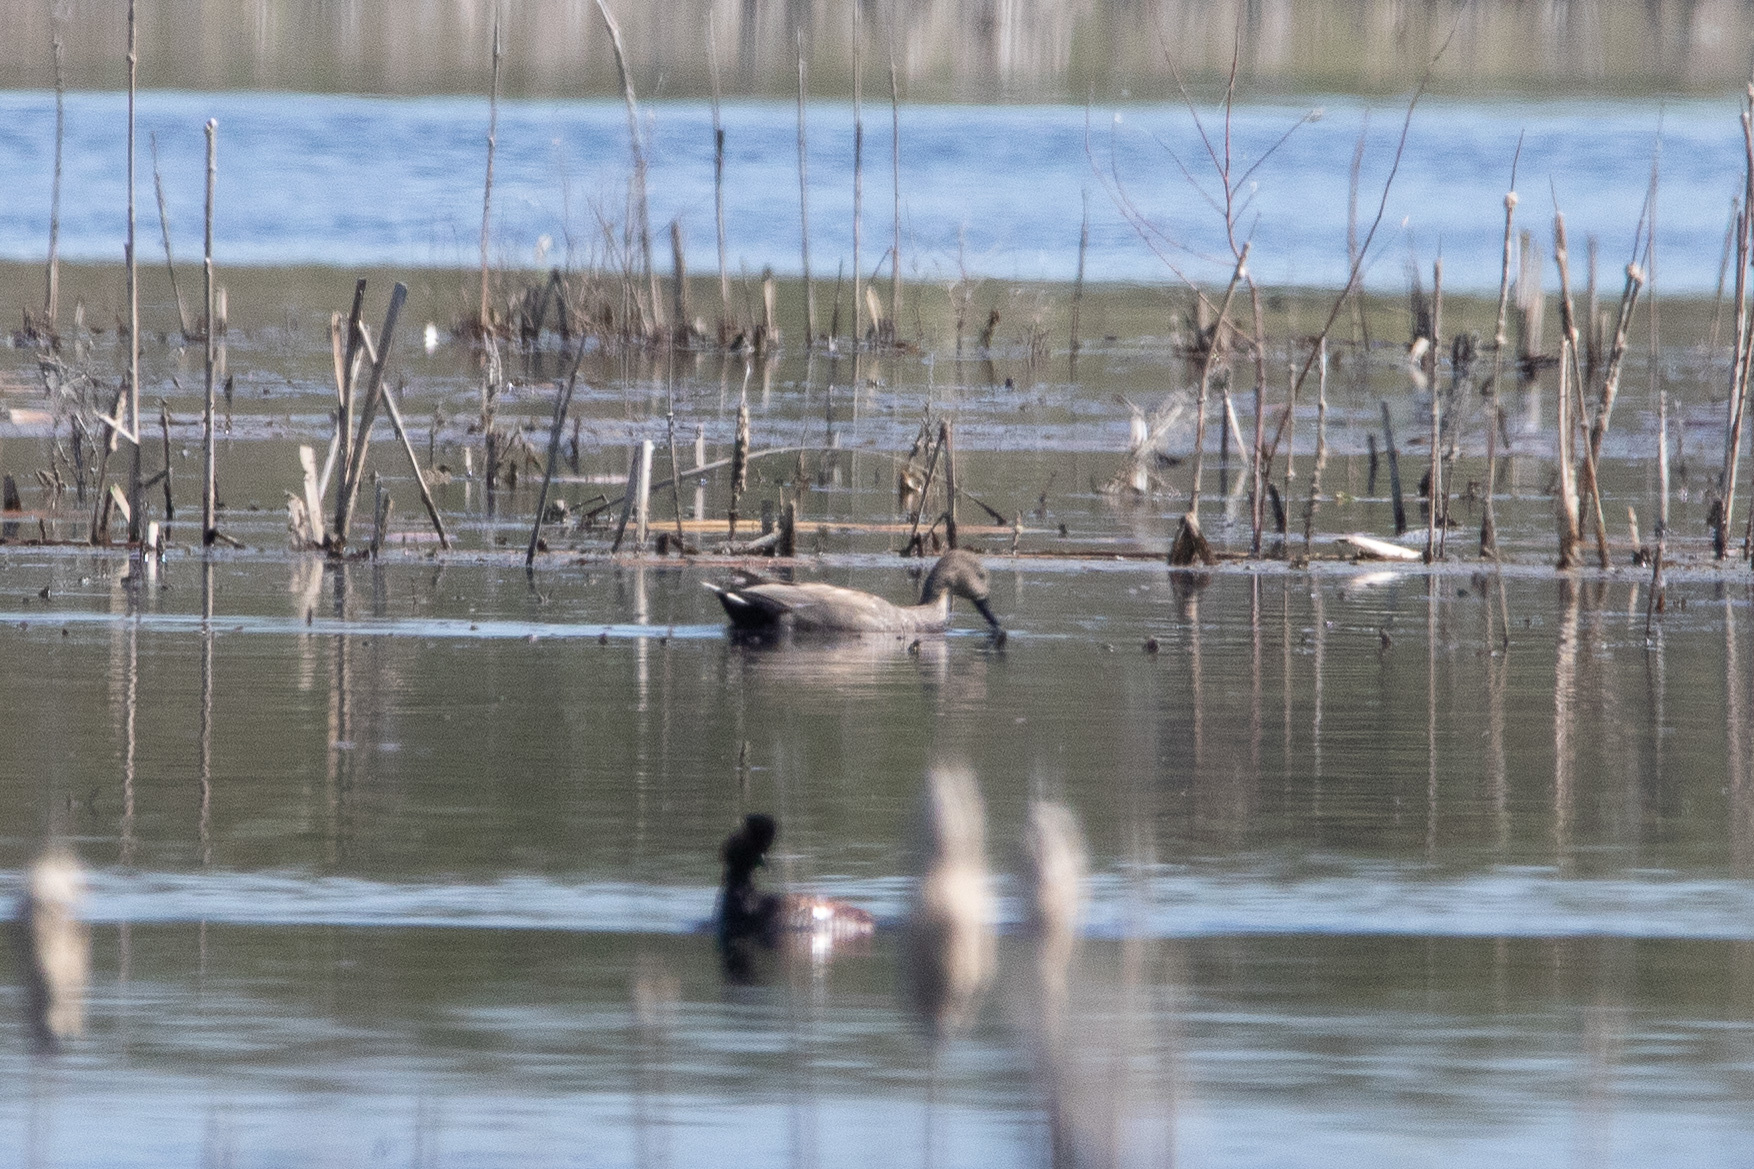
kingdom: Animalia
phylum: Chordata
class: Aves
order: Anseriformes
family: Anatidae
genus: Mareca
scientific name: Mareca strepera
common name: Gadwall
